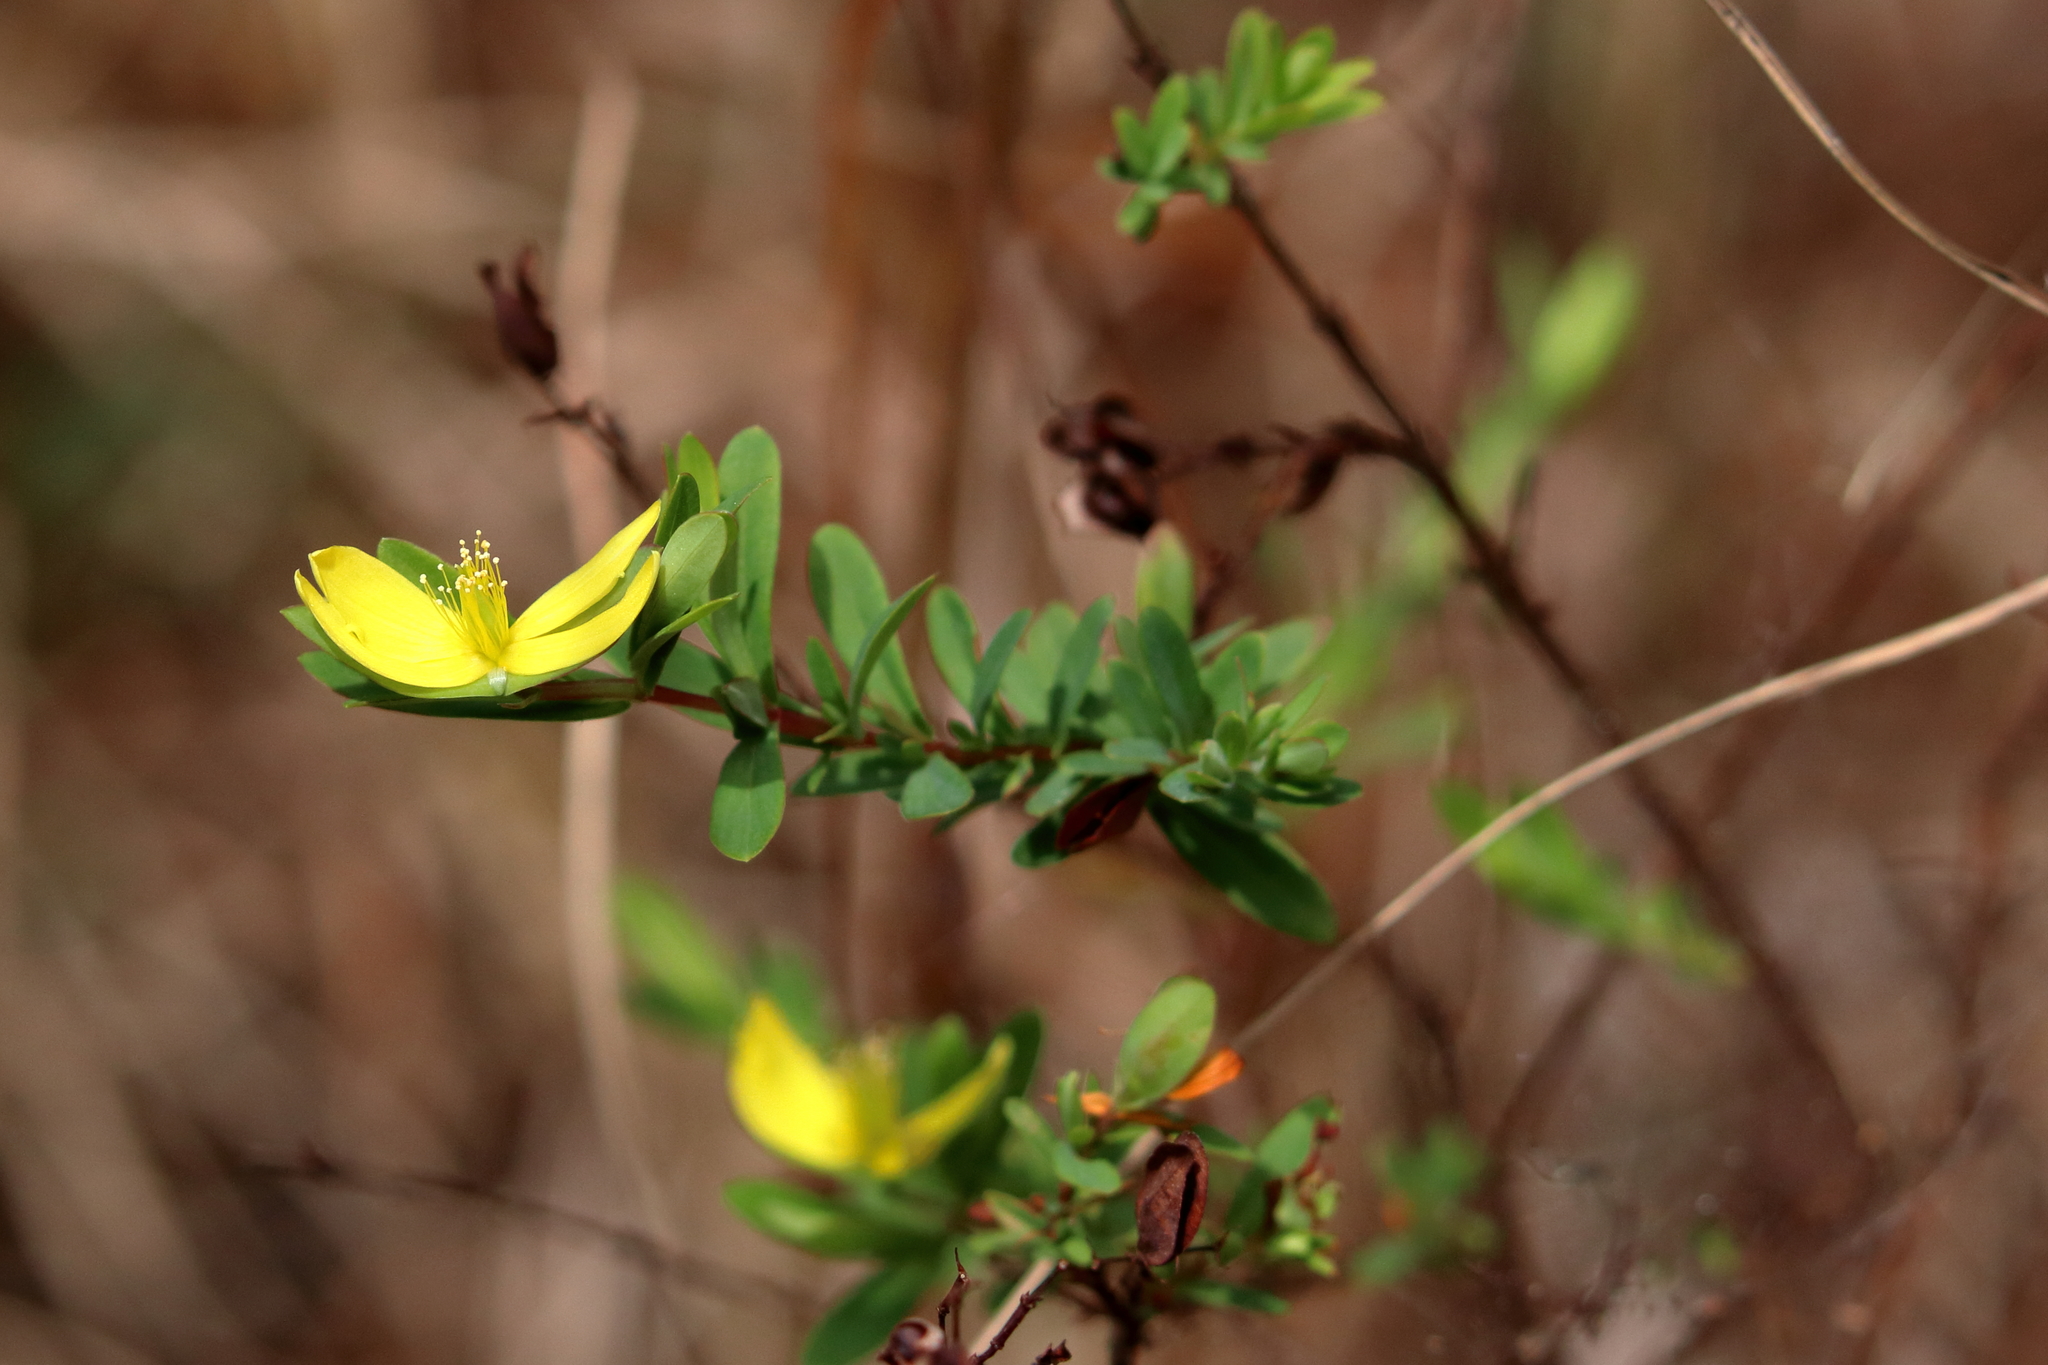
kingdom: Plantae
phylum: Tracheophyta
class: Magnoliopsida
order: Malpighiales
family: Hypericaceae
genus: Hypericum
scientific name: Hypericum hypericoides
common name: St. andrew's cross
